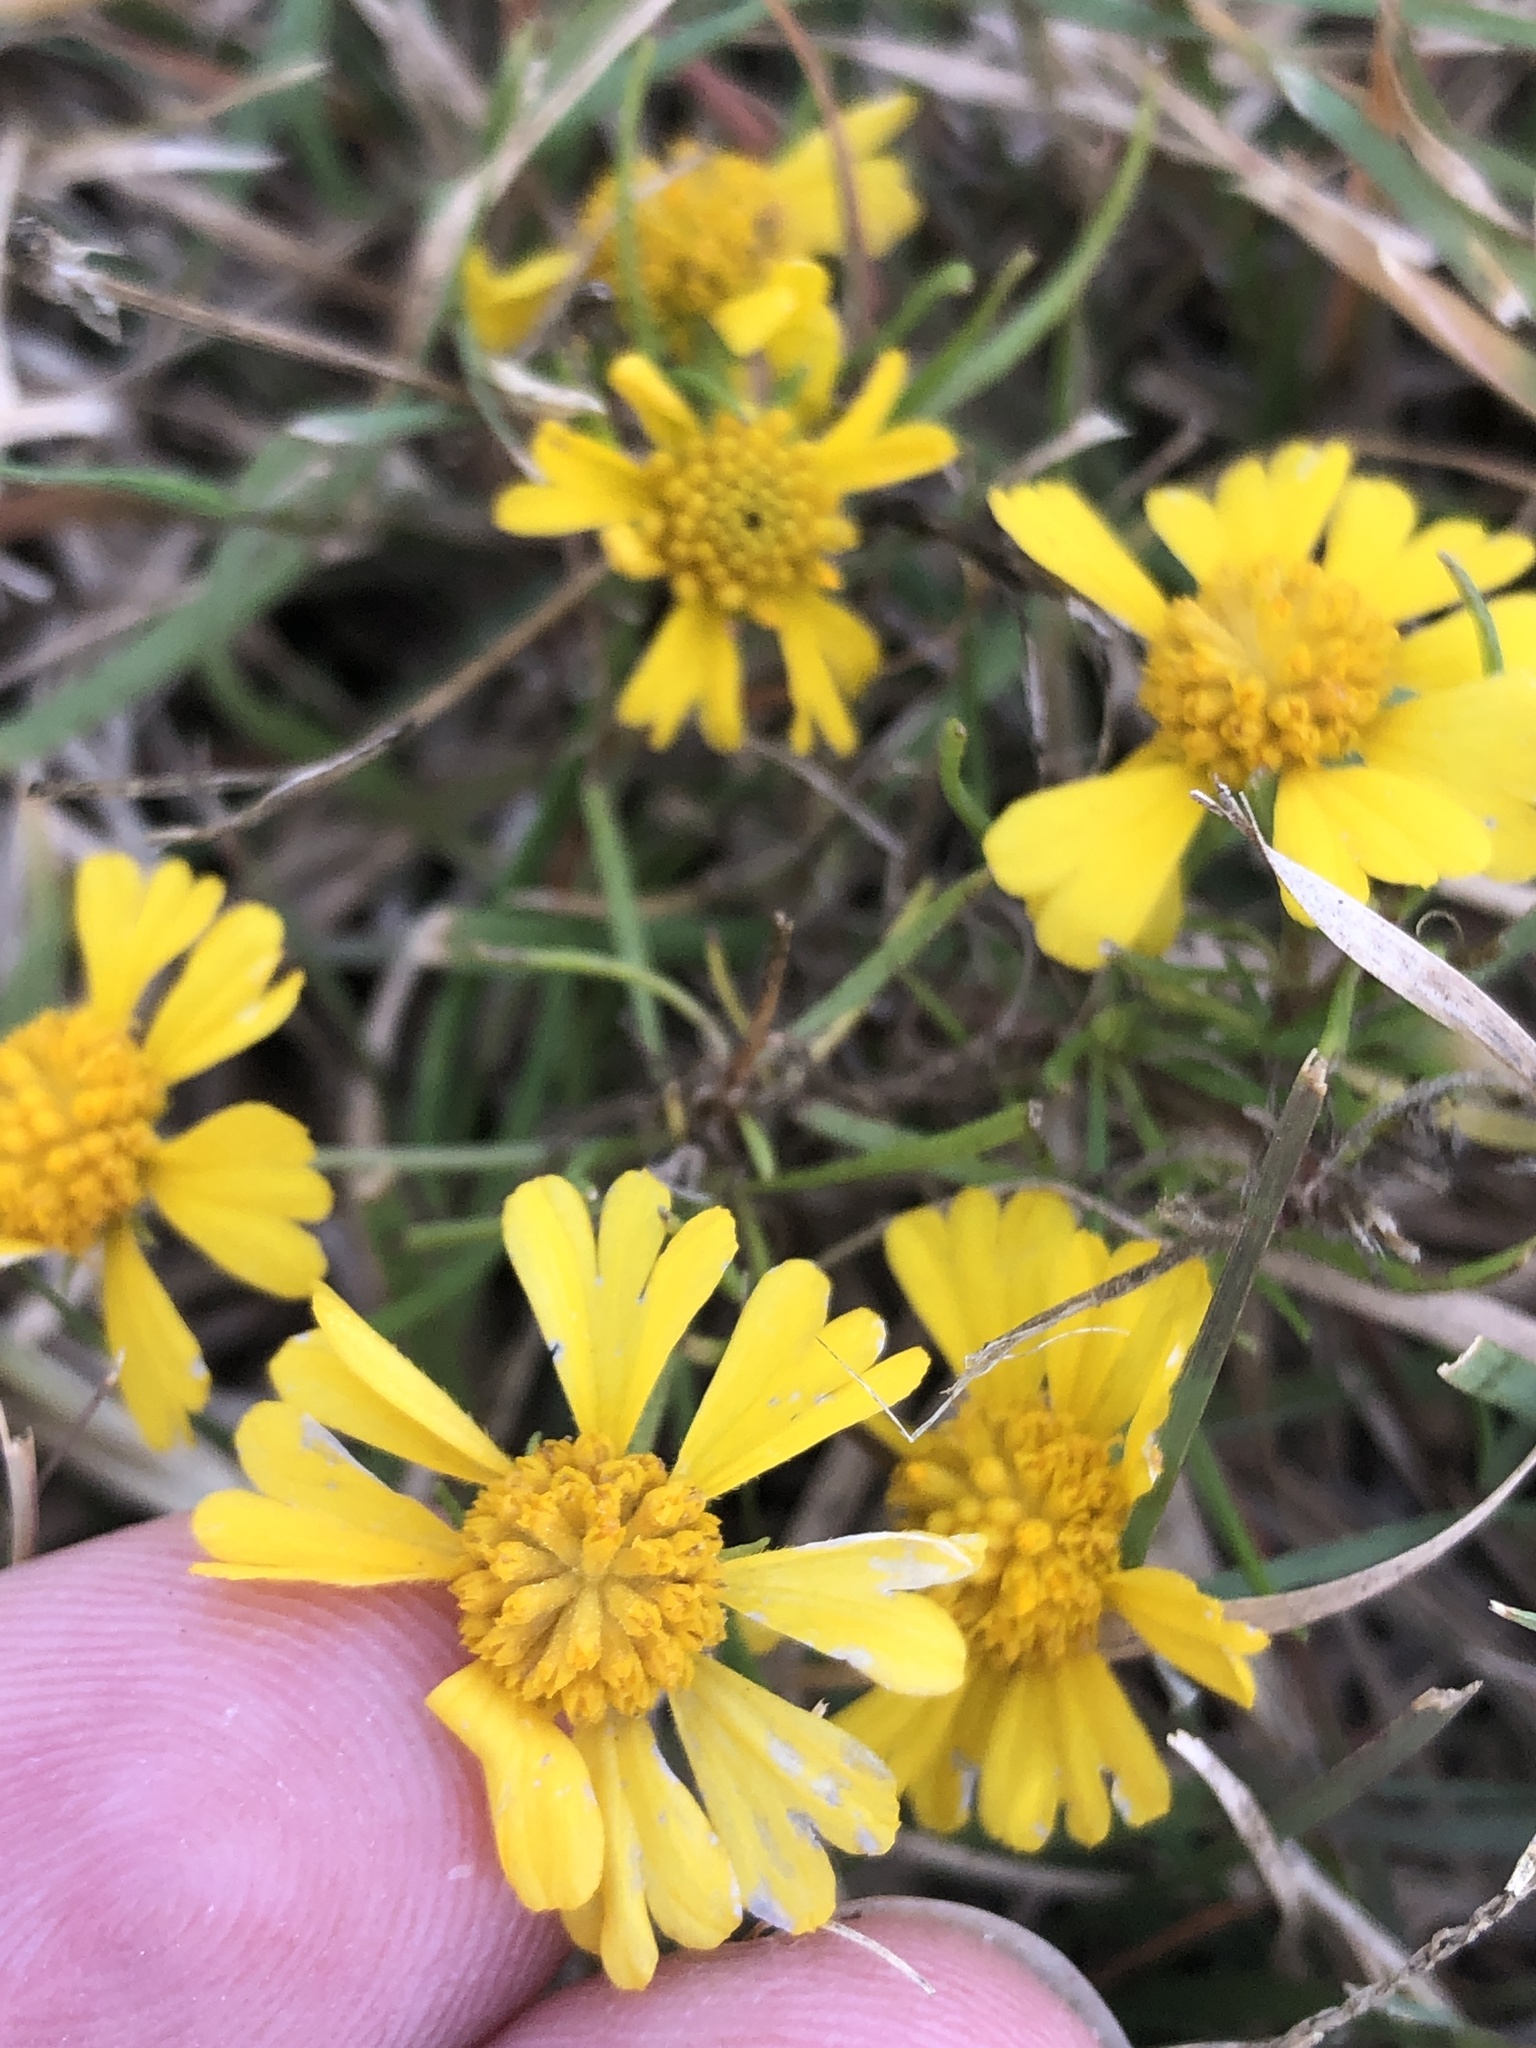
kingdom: Plantae
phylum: Tracheophyta
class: Magnoliopsida
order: Asterales
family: Asteraceae
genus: Helenium
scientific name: Helenium amarum
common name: Bitter sneezeweed
